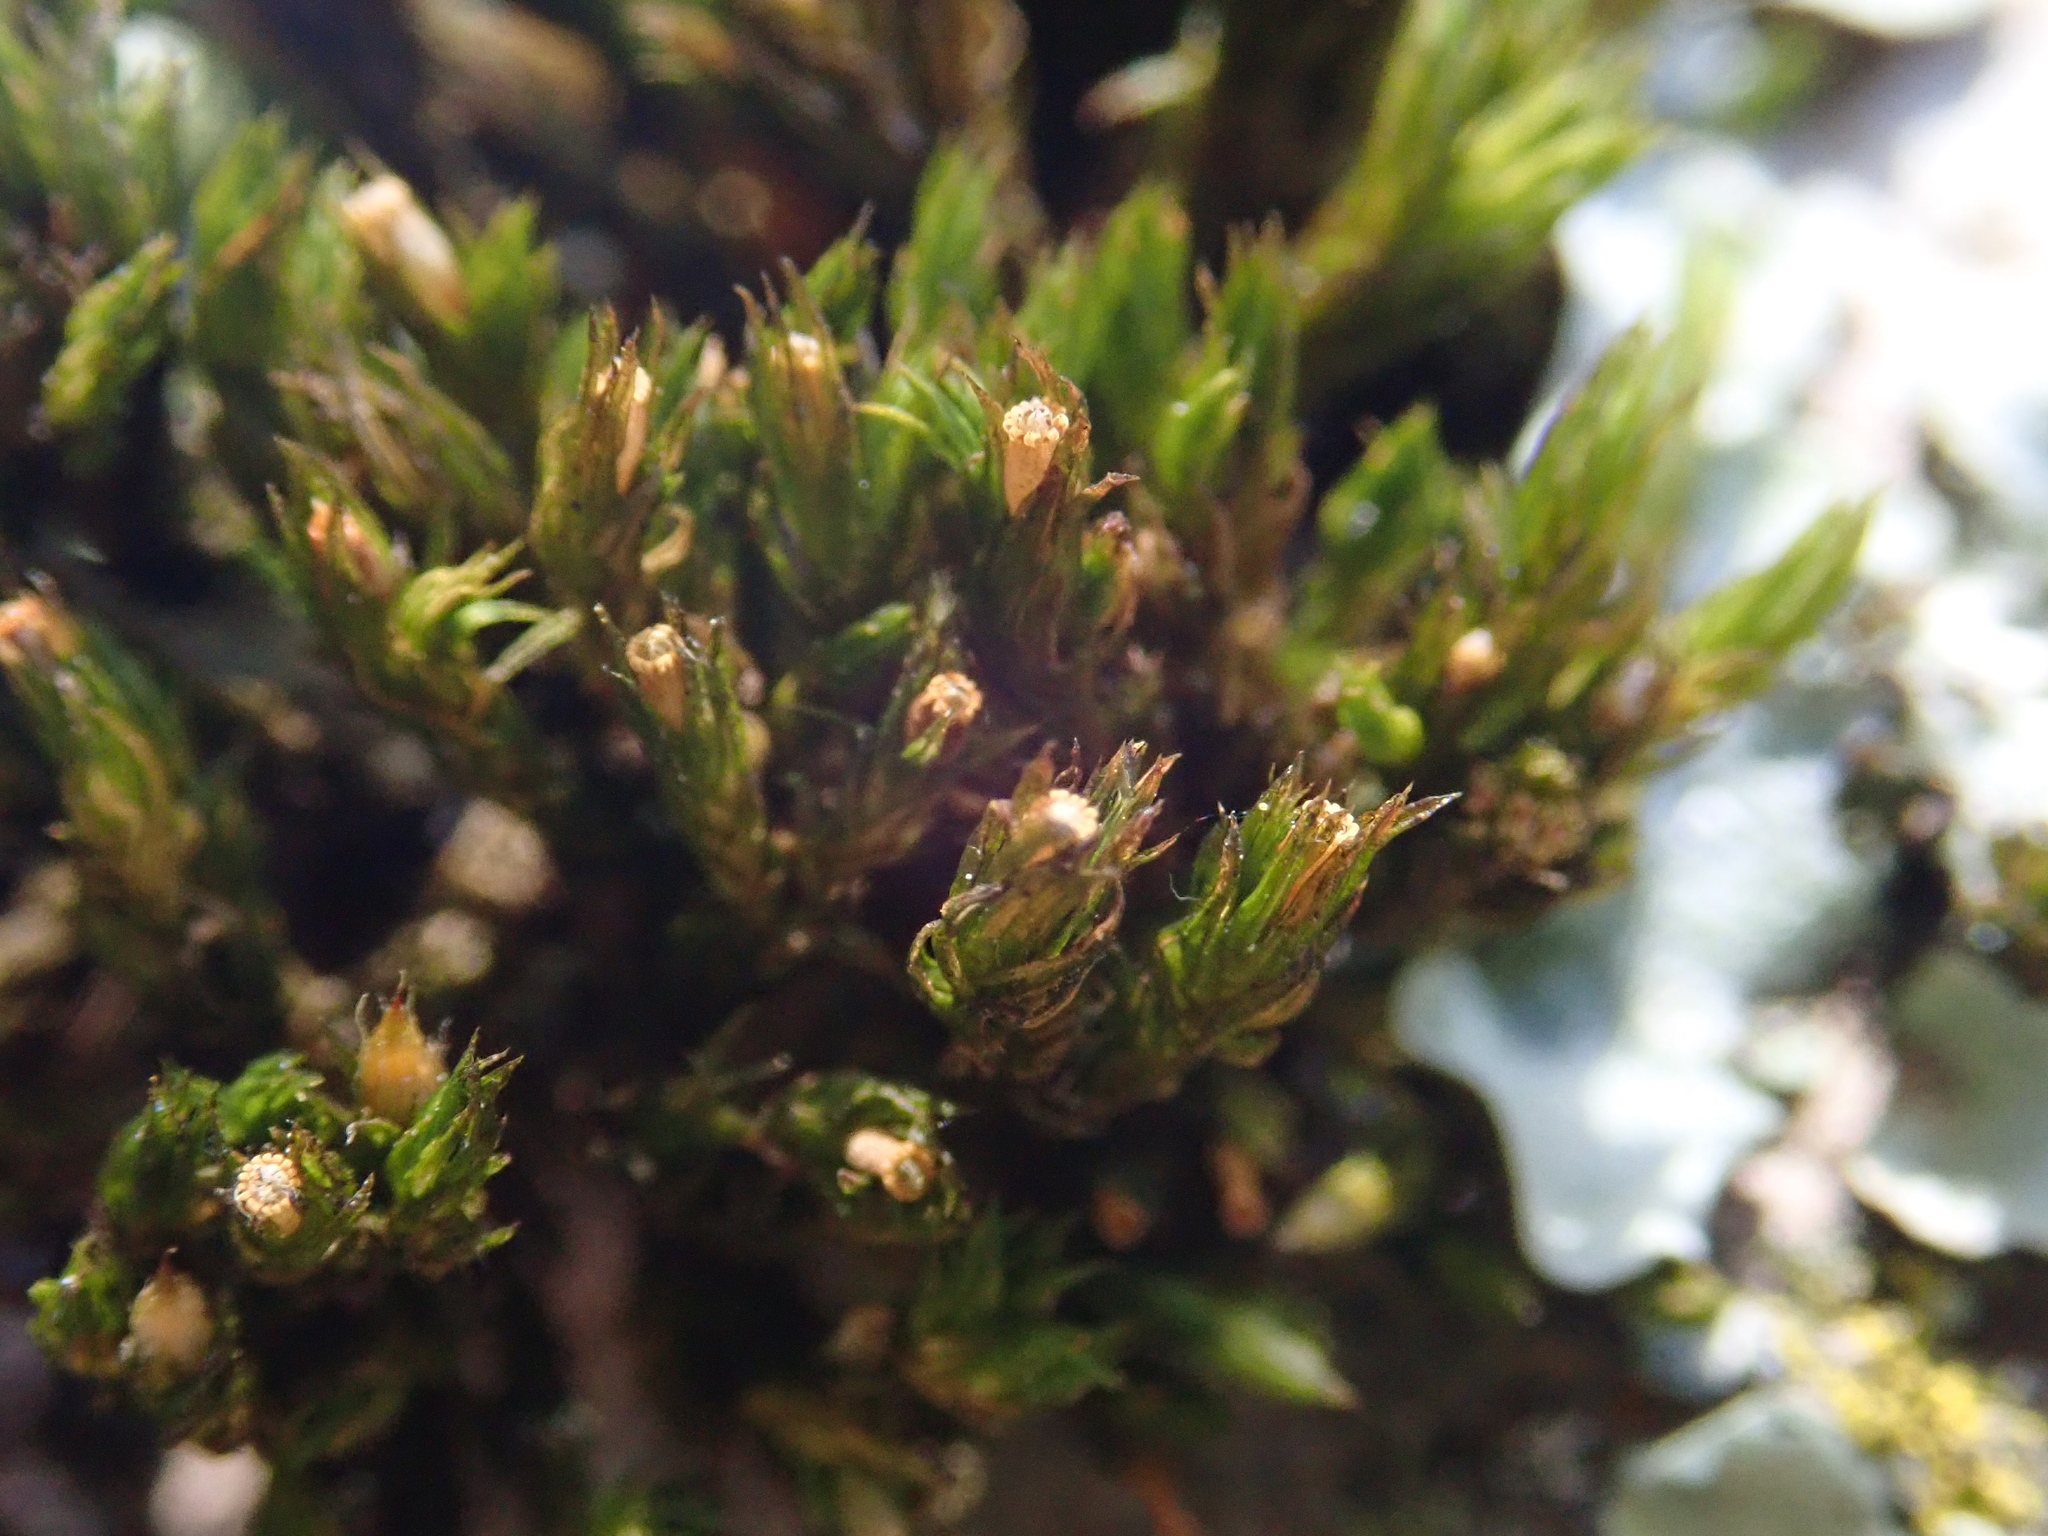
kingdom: Plantae
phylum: Bryophyta
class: Bryopsida
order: Orthotrichales
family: Orthotrichaceae
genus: Lewinskya
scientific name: Lewinskya striata
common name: Shaw's bristle-moss
